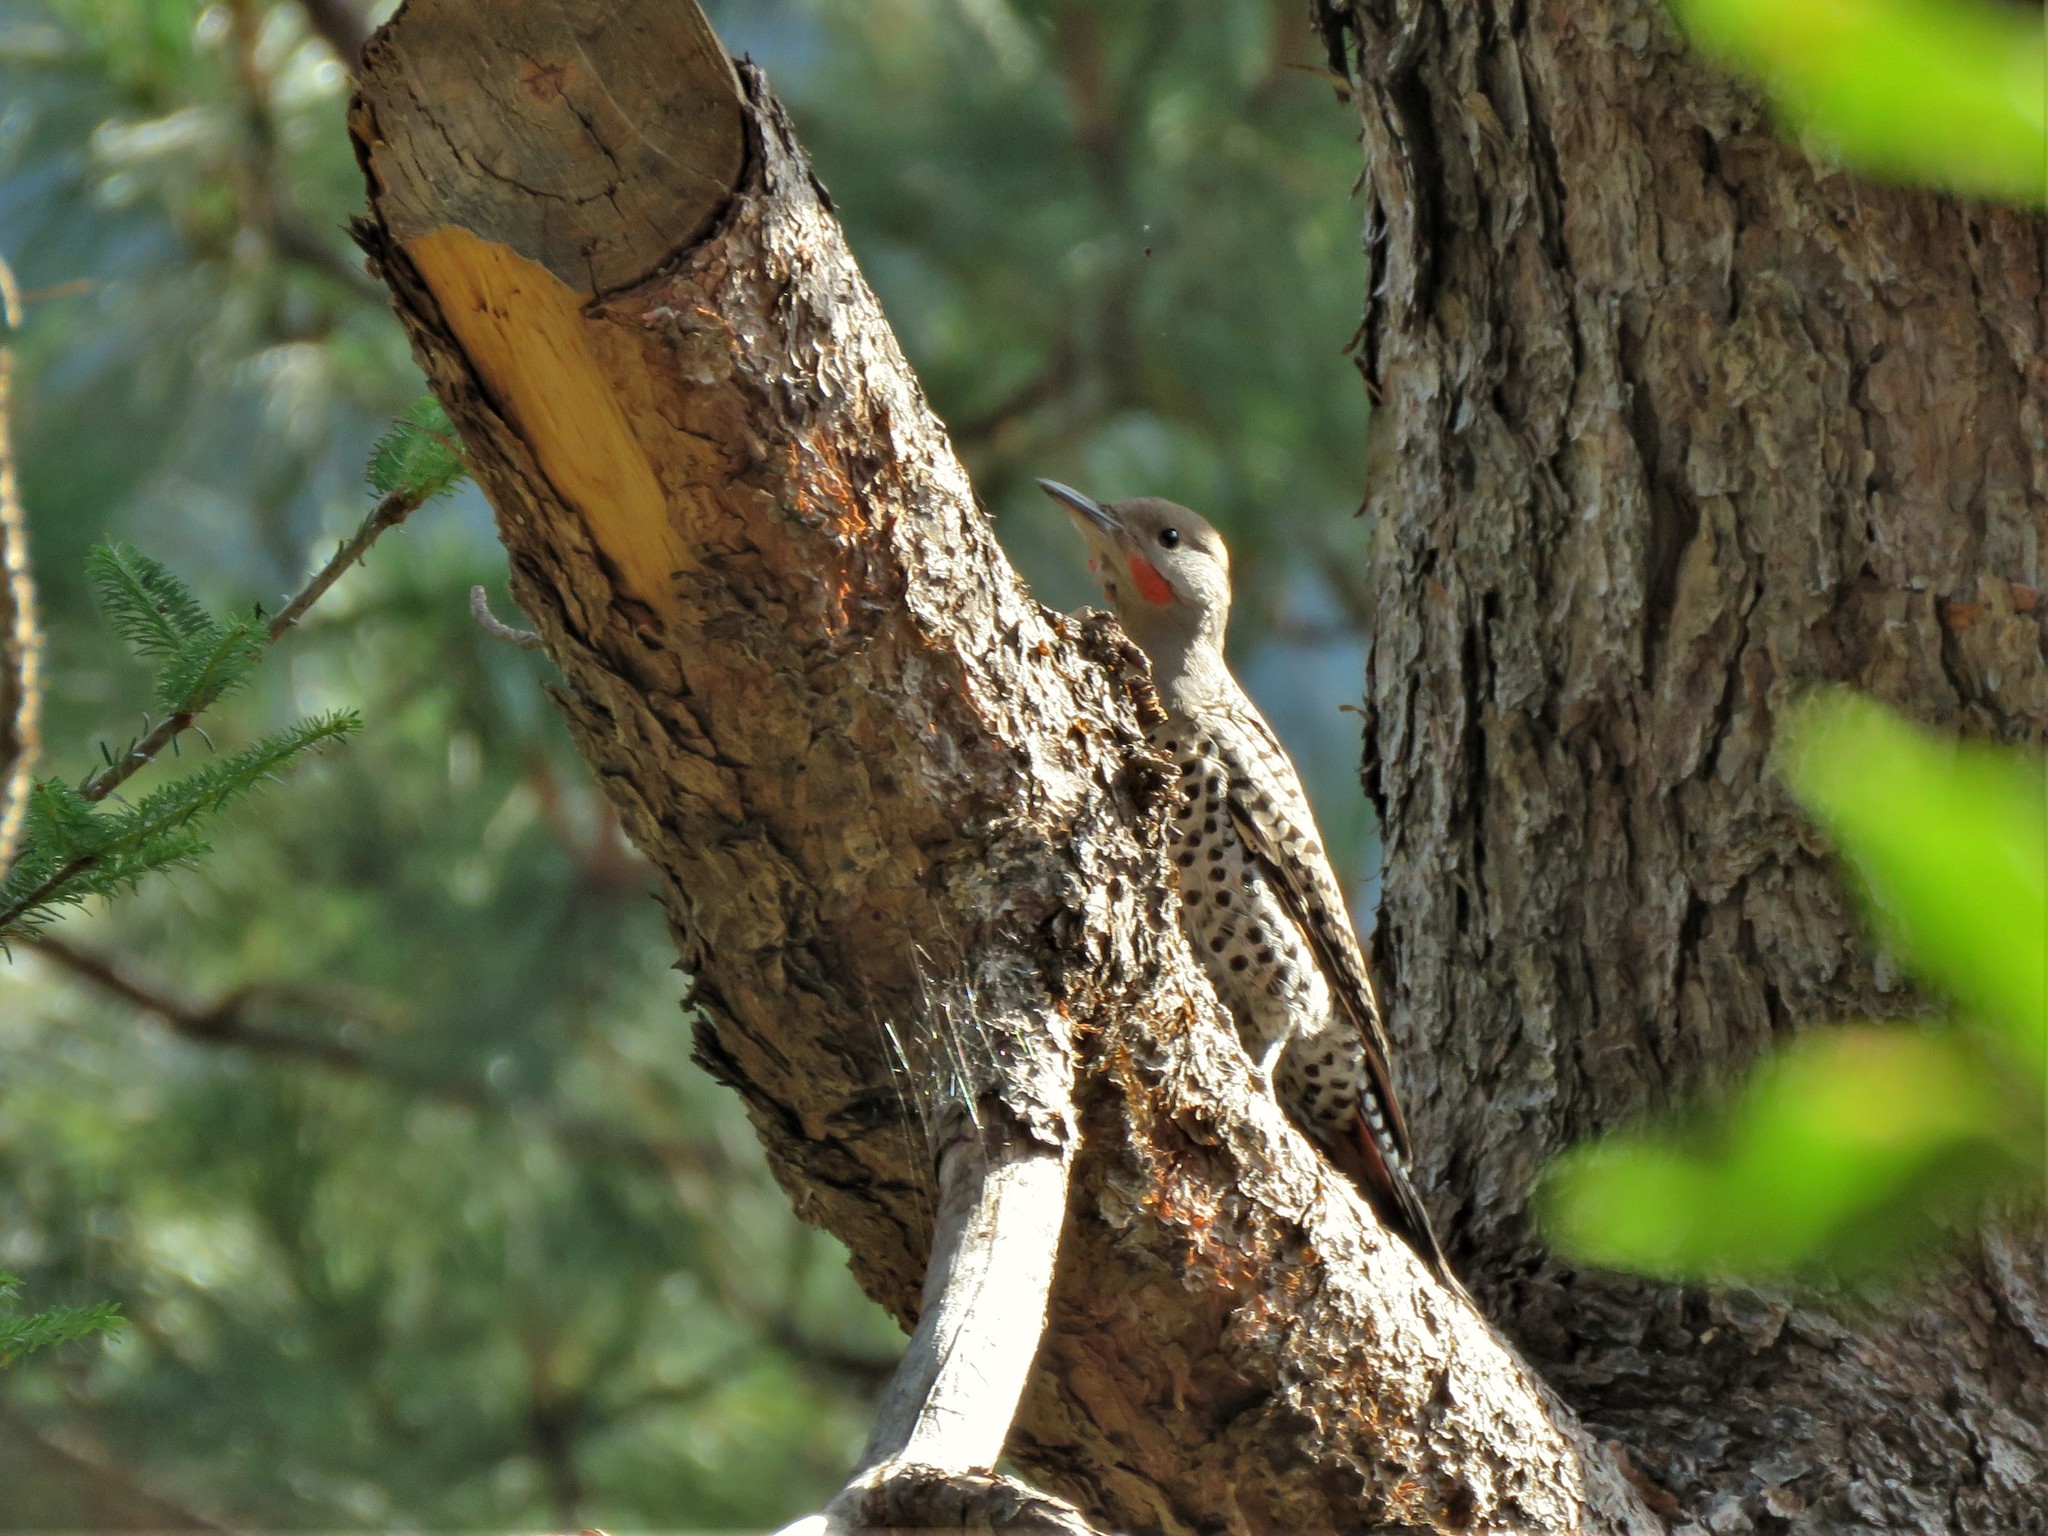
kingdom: Animalia
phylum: Chordata
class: Aves
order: Piciformes
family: Picidae
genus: Colaptes
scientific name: Colaptes auratus
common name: Northern flicker
